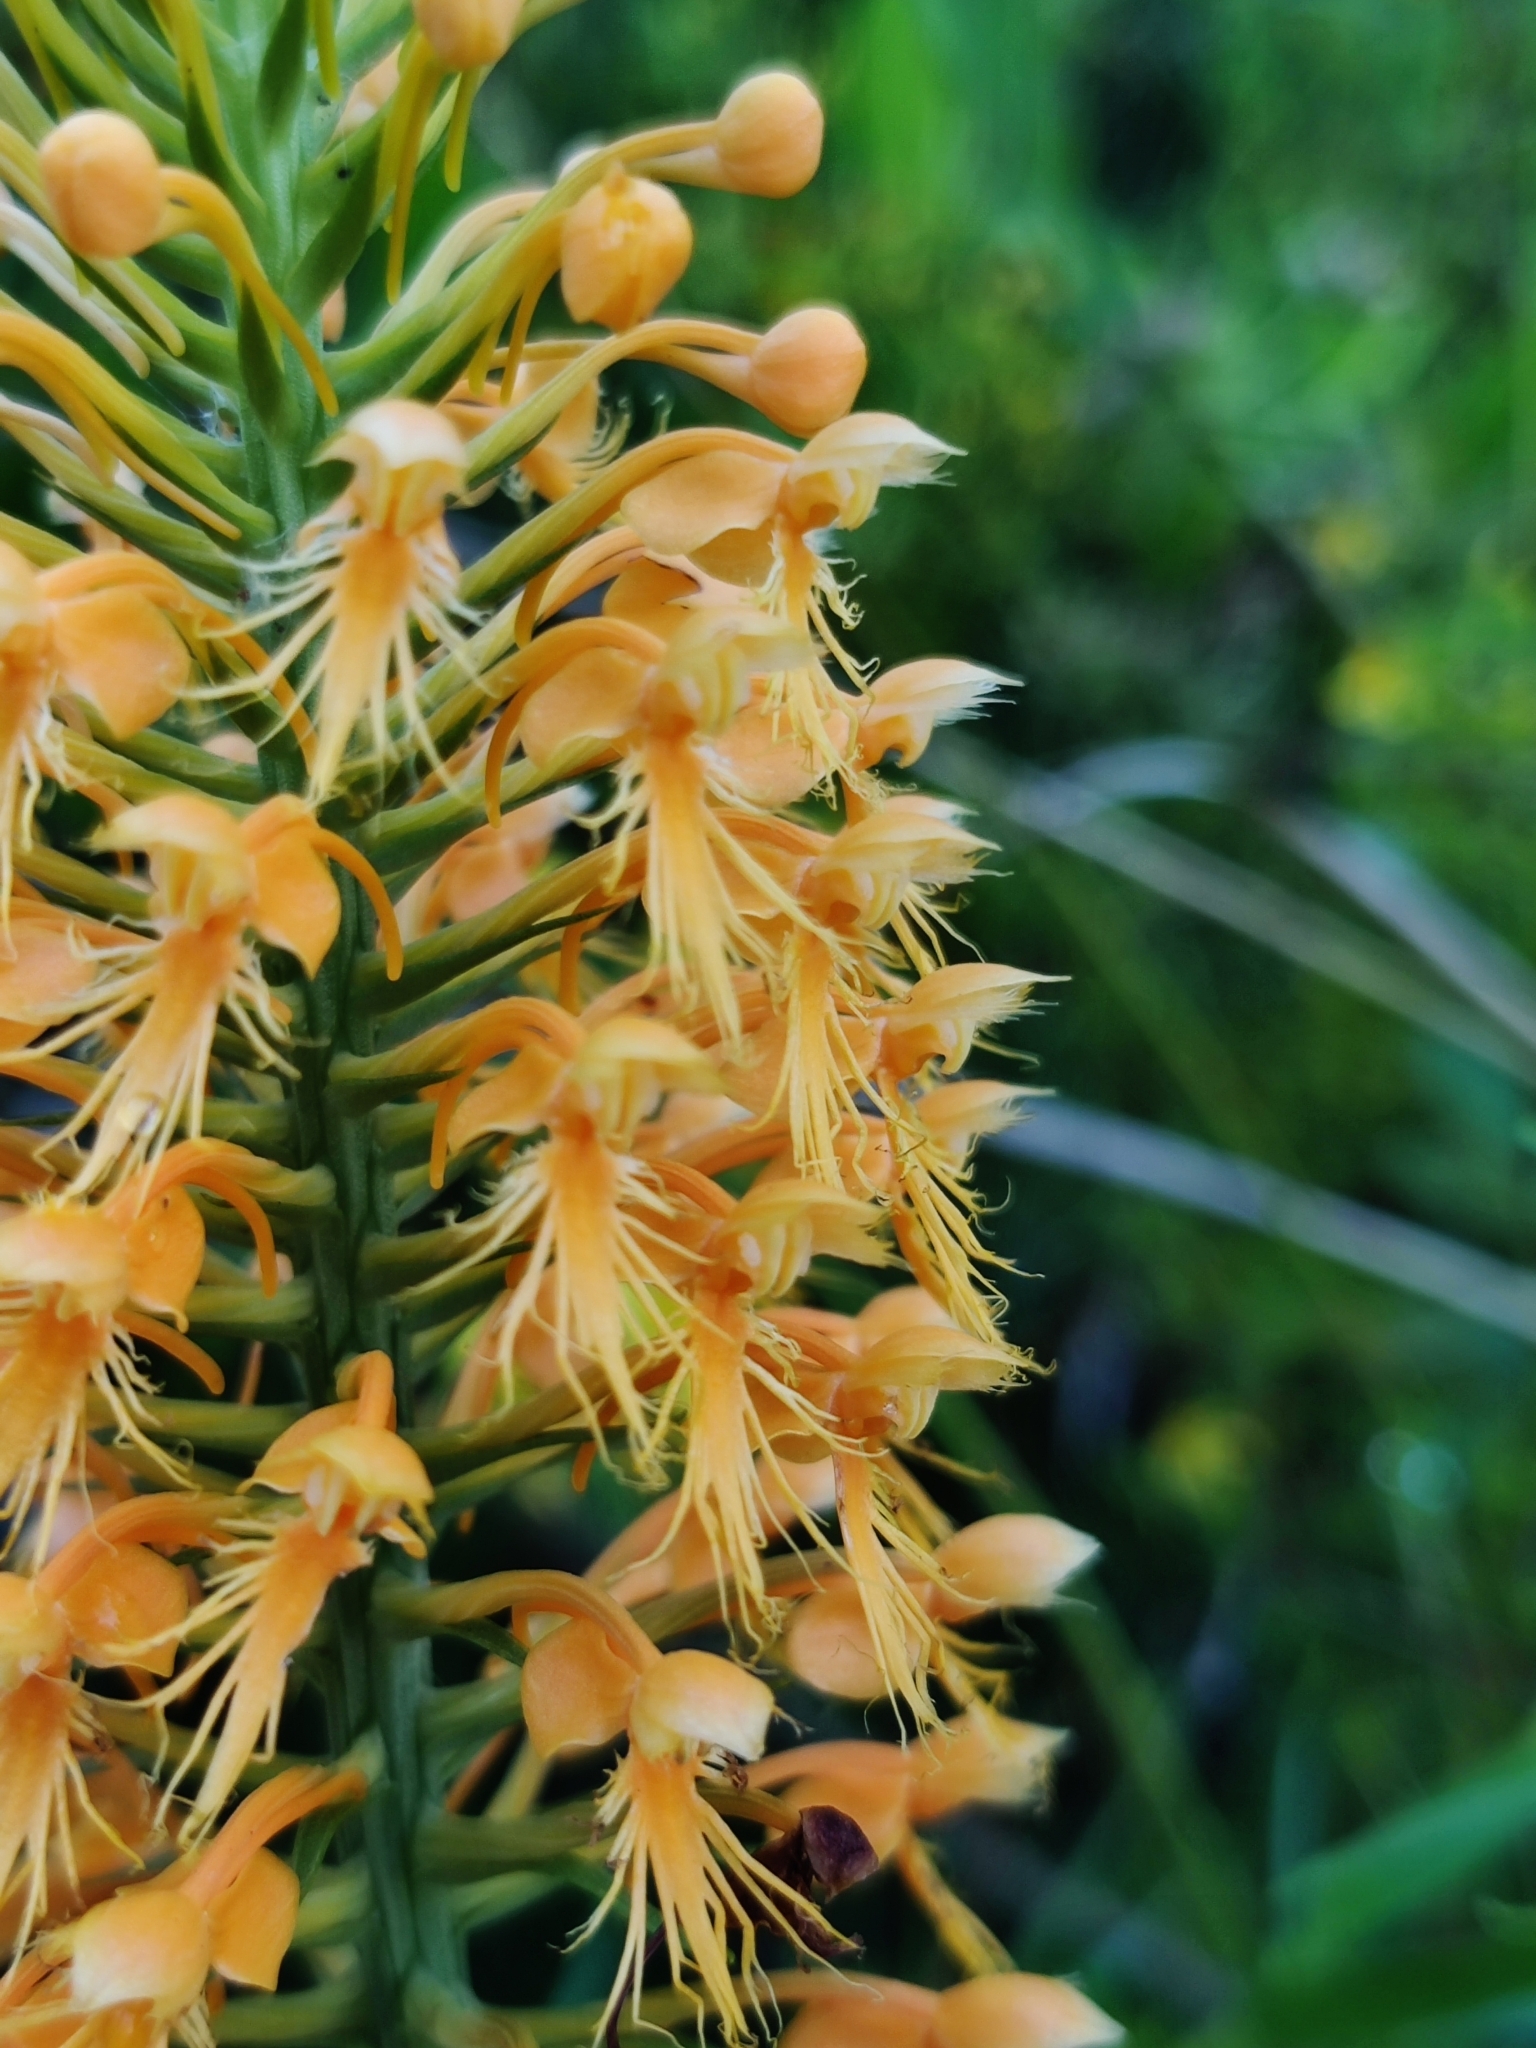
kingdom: Plantae
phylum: Tracheophyta
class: Liliopsida
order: Asparagales
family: Orchidaceae
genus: Platanthera
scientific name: Platanthera chapmanii
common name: Chapman’s fringed orchid
